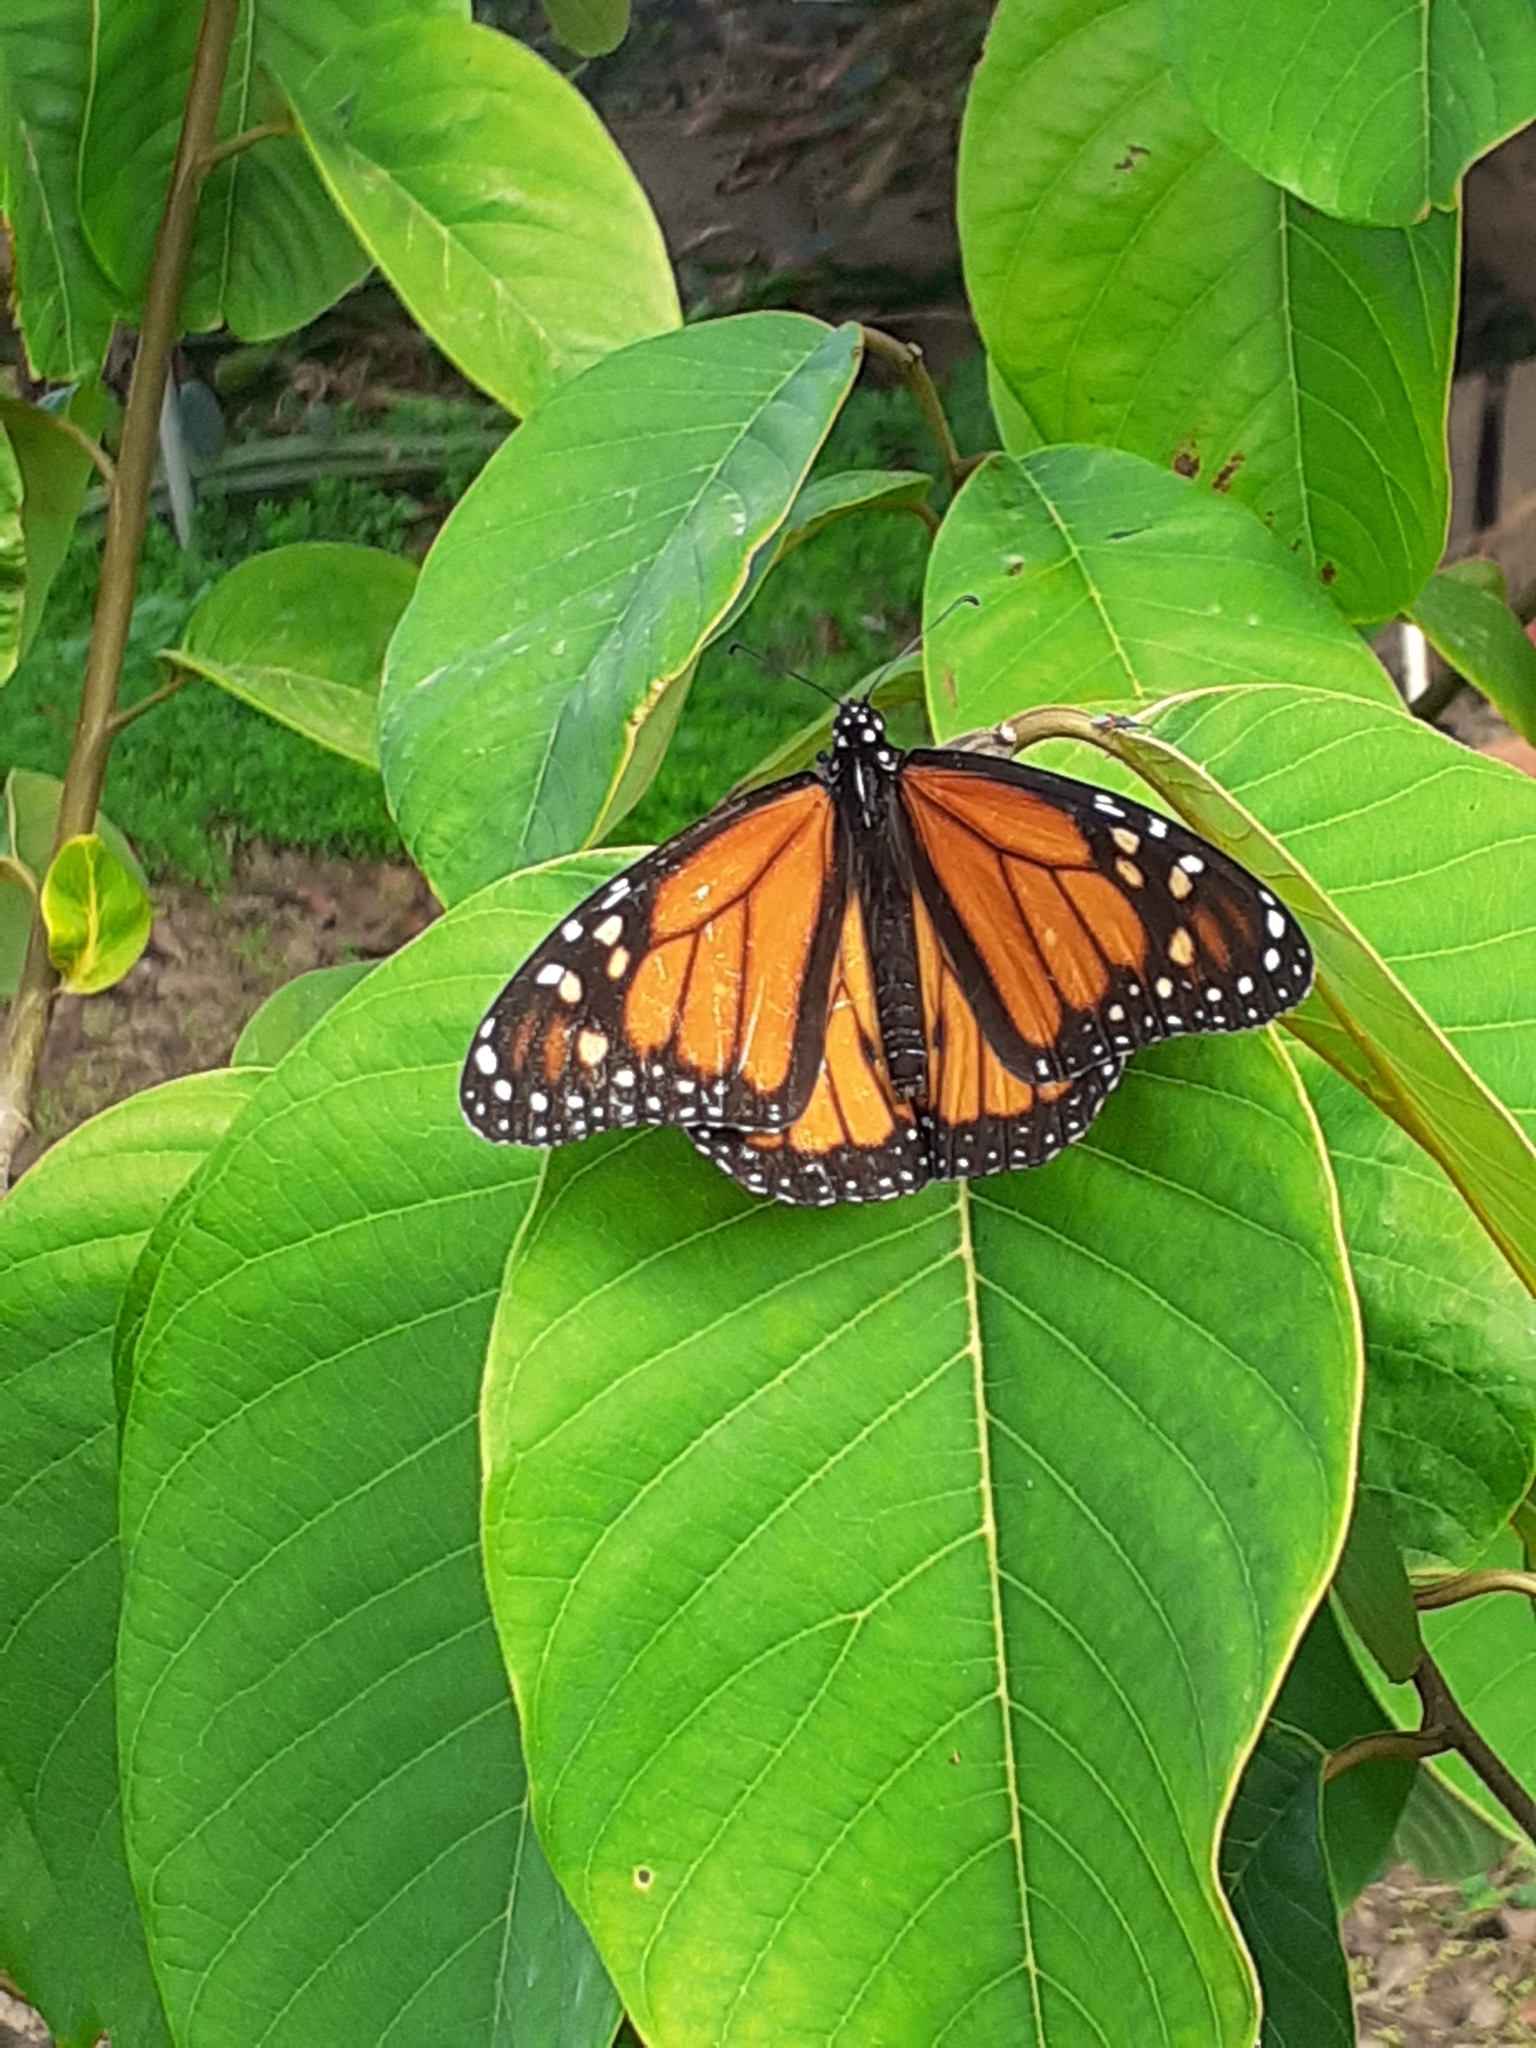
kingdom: Animalia
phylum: Arthropoda
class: Insecta
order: Lepidoptera
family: Nymphalidae
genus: Danaus
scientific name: Danaus plexippus
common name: Monarch
